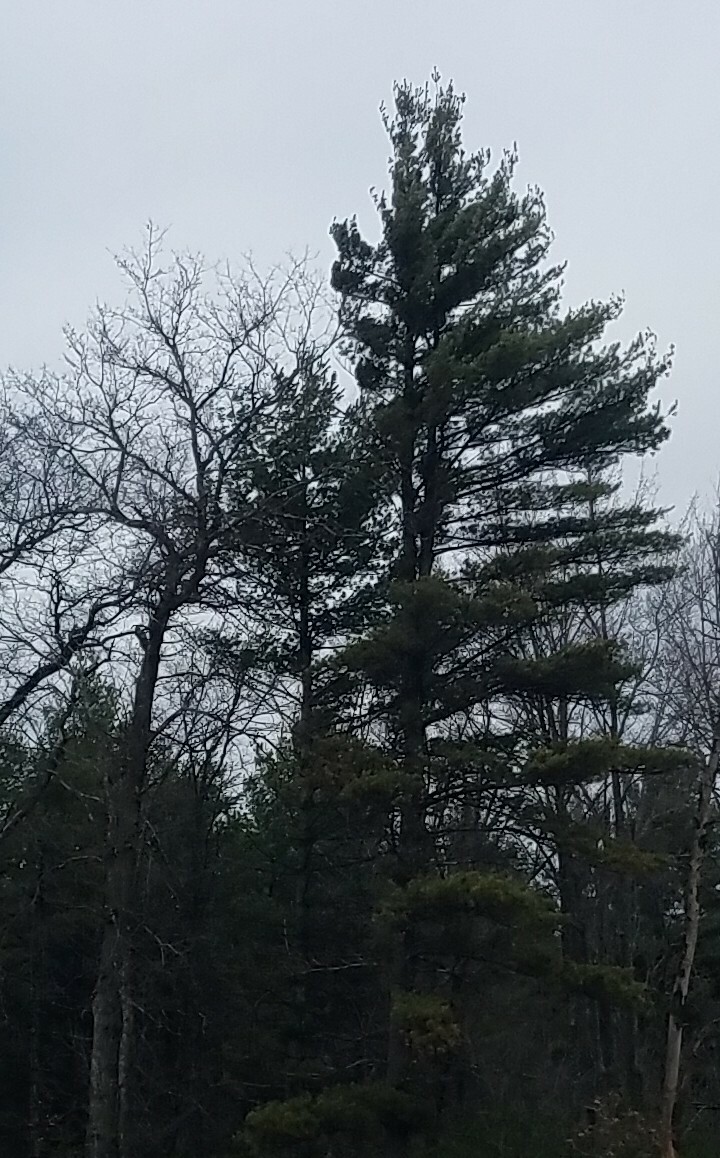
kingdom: Plantae
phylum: Tracheophyta
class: Pinopsida
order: Pinales
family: Pinaceae
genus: Pinus
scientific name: Pinus strobus
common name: Weymouth pine
